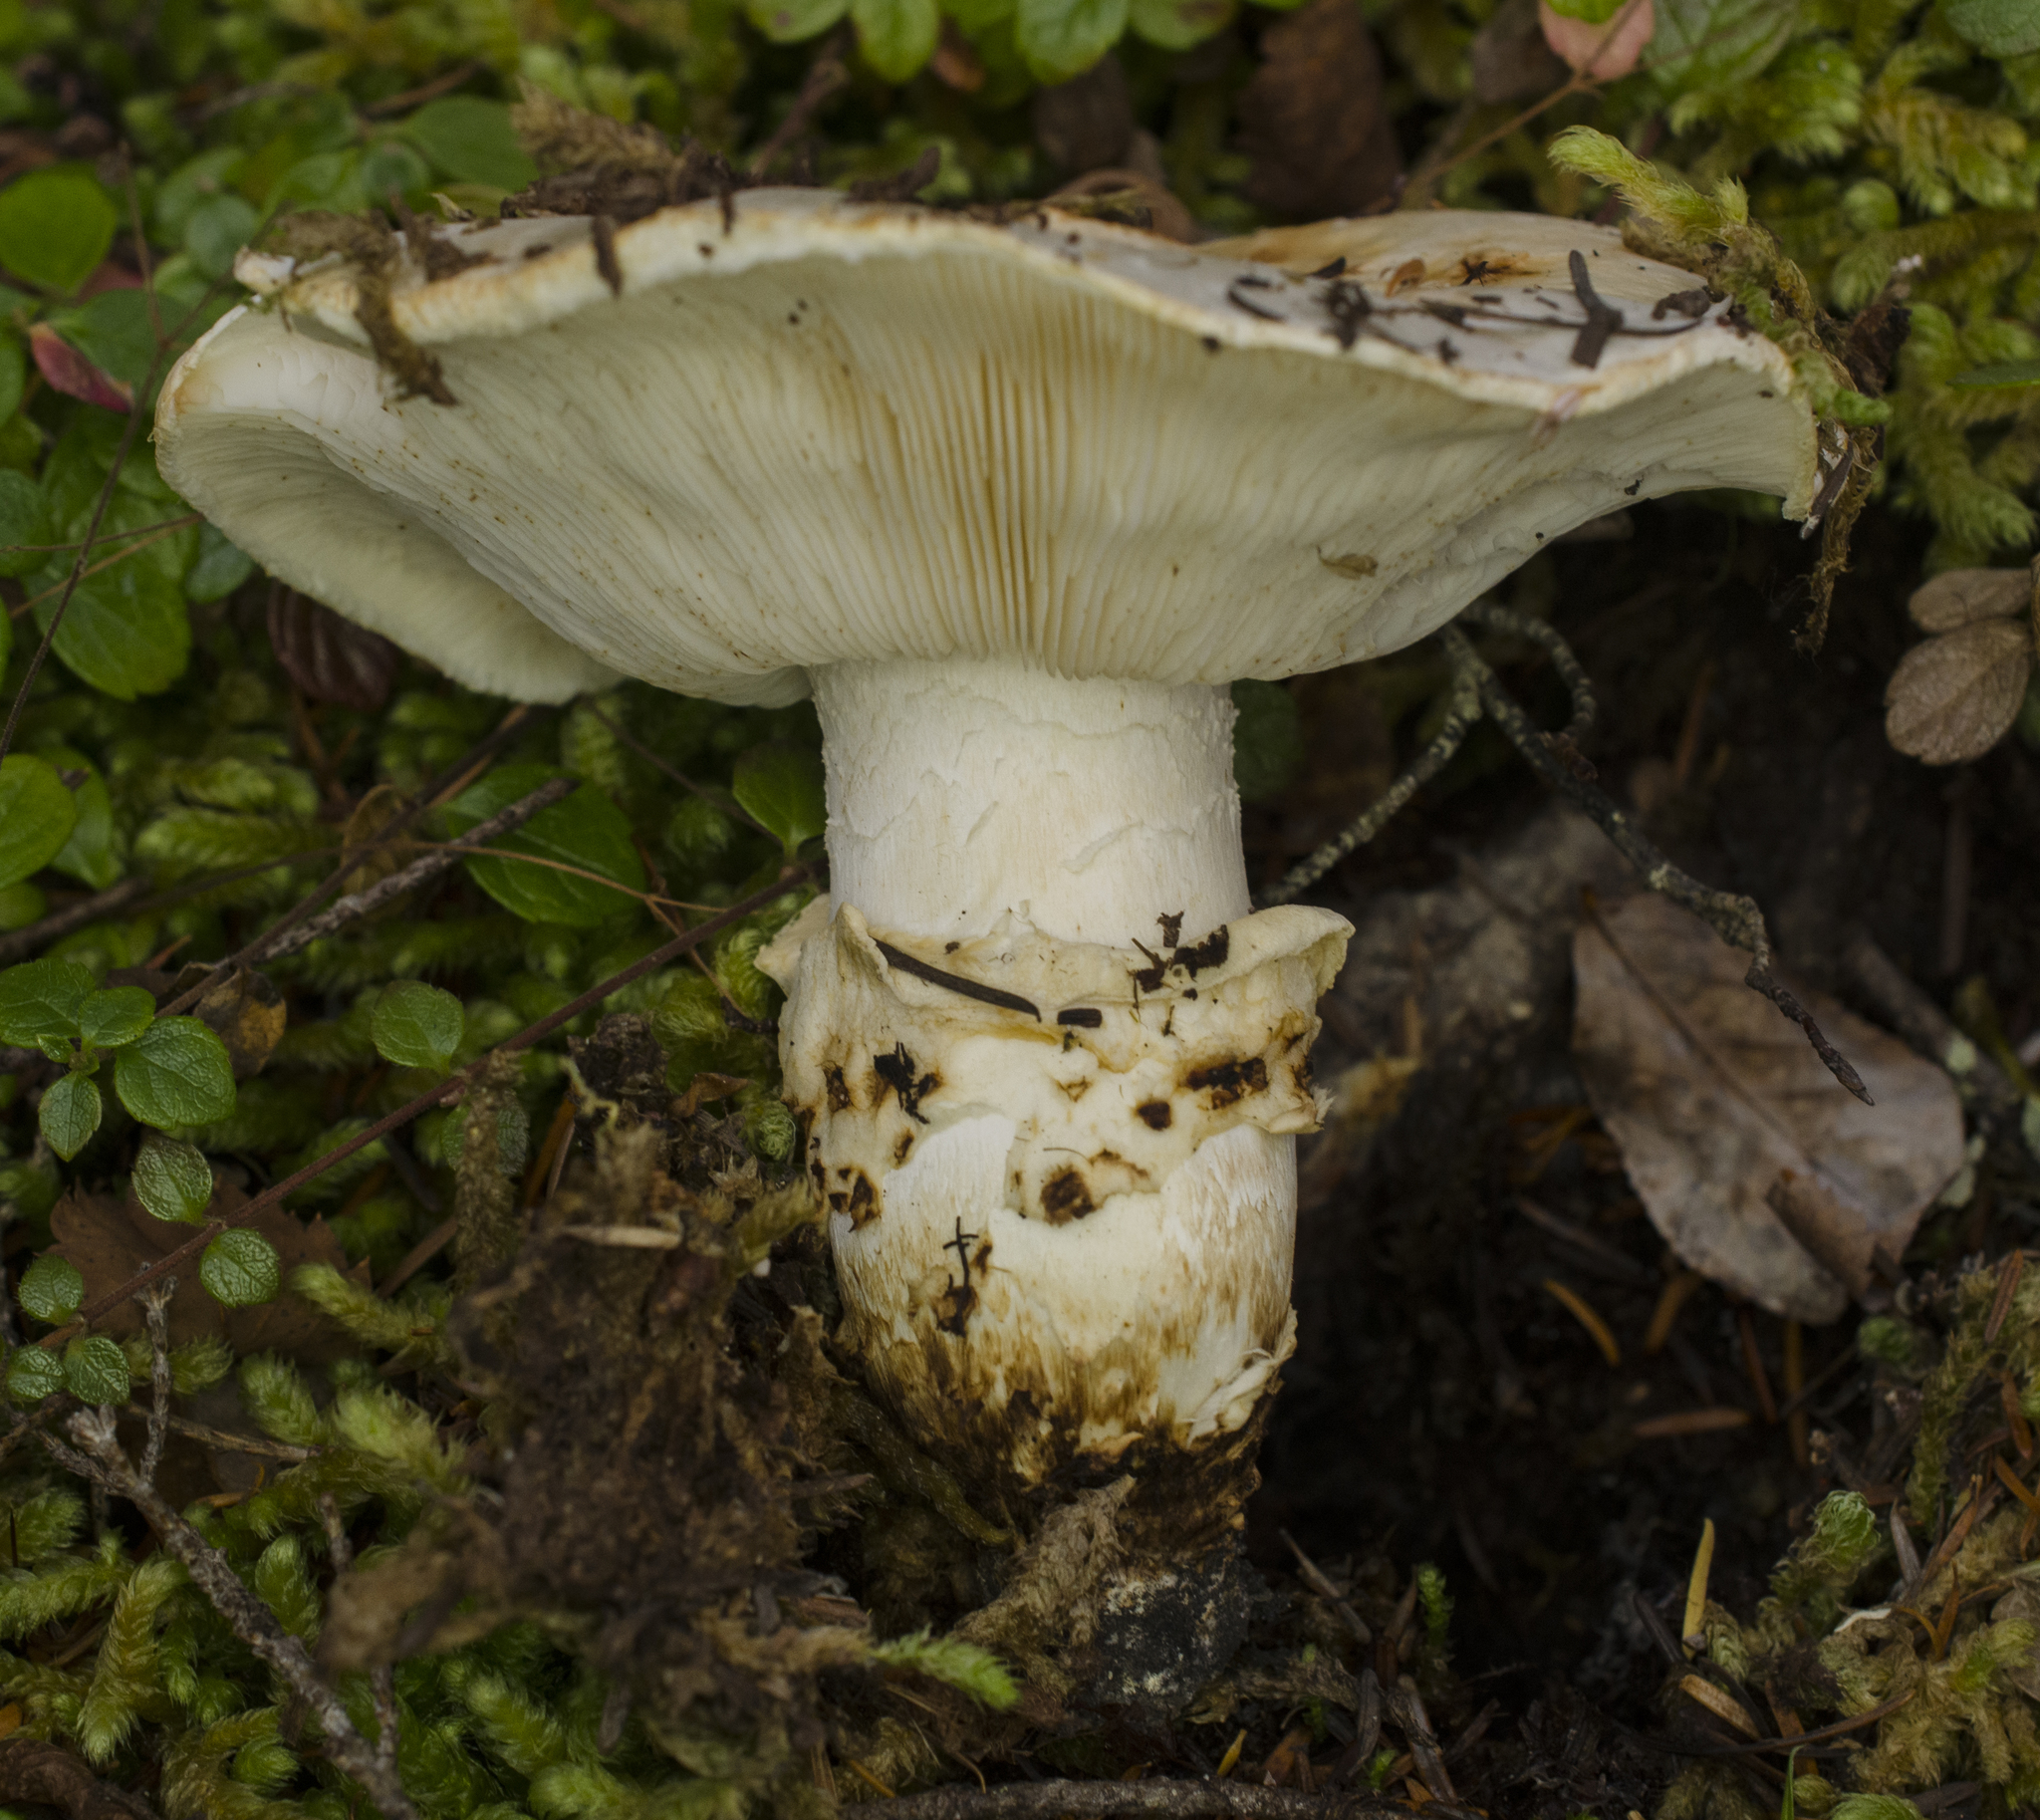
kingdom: Fungi
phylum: Basidiomycota
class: Agaricomycetes
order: Agaricales
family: Tricholomataceae
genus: Tricholoma
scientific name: Tricholoma murrillianum
